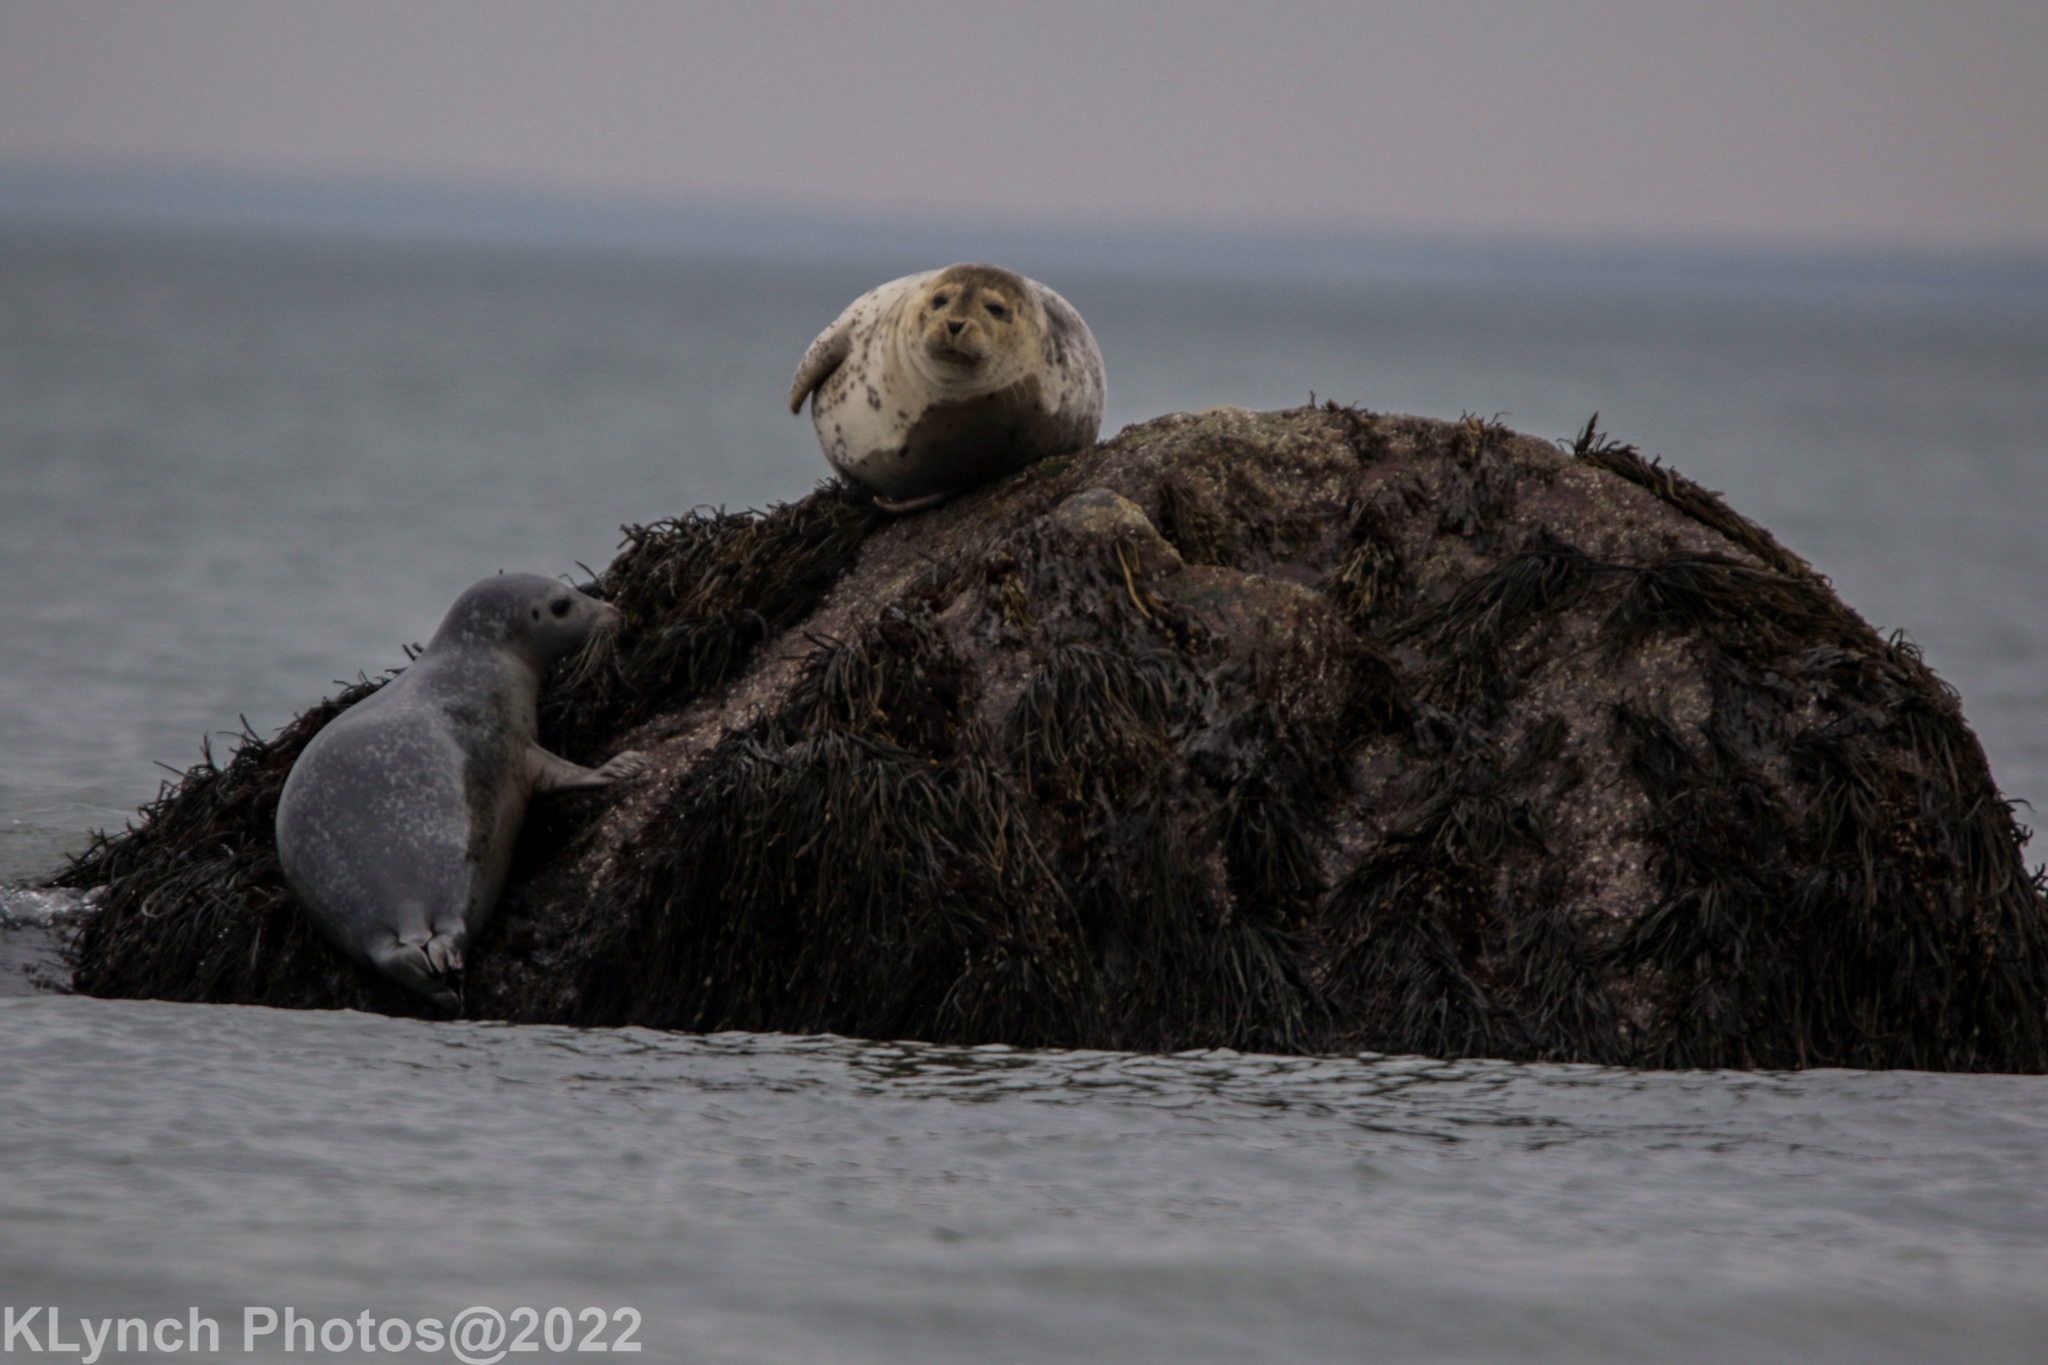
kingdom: Animalia
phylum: Chordata
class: Mammalia
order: Carnivora
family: Phocidae
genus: Phoca
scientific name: Phoca vitulina
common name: Harbor seal
